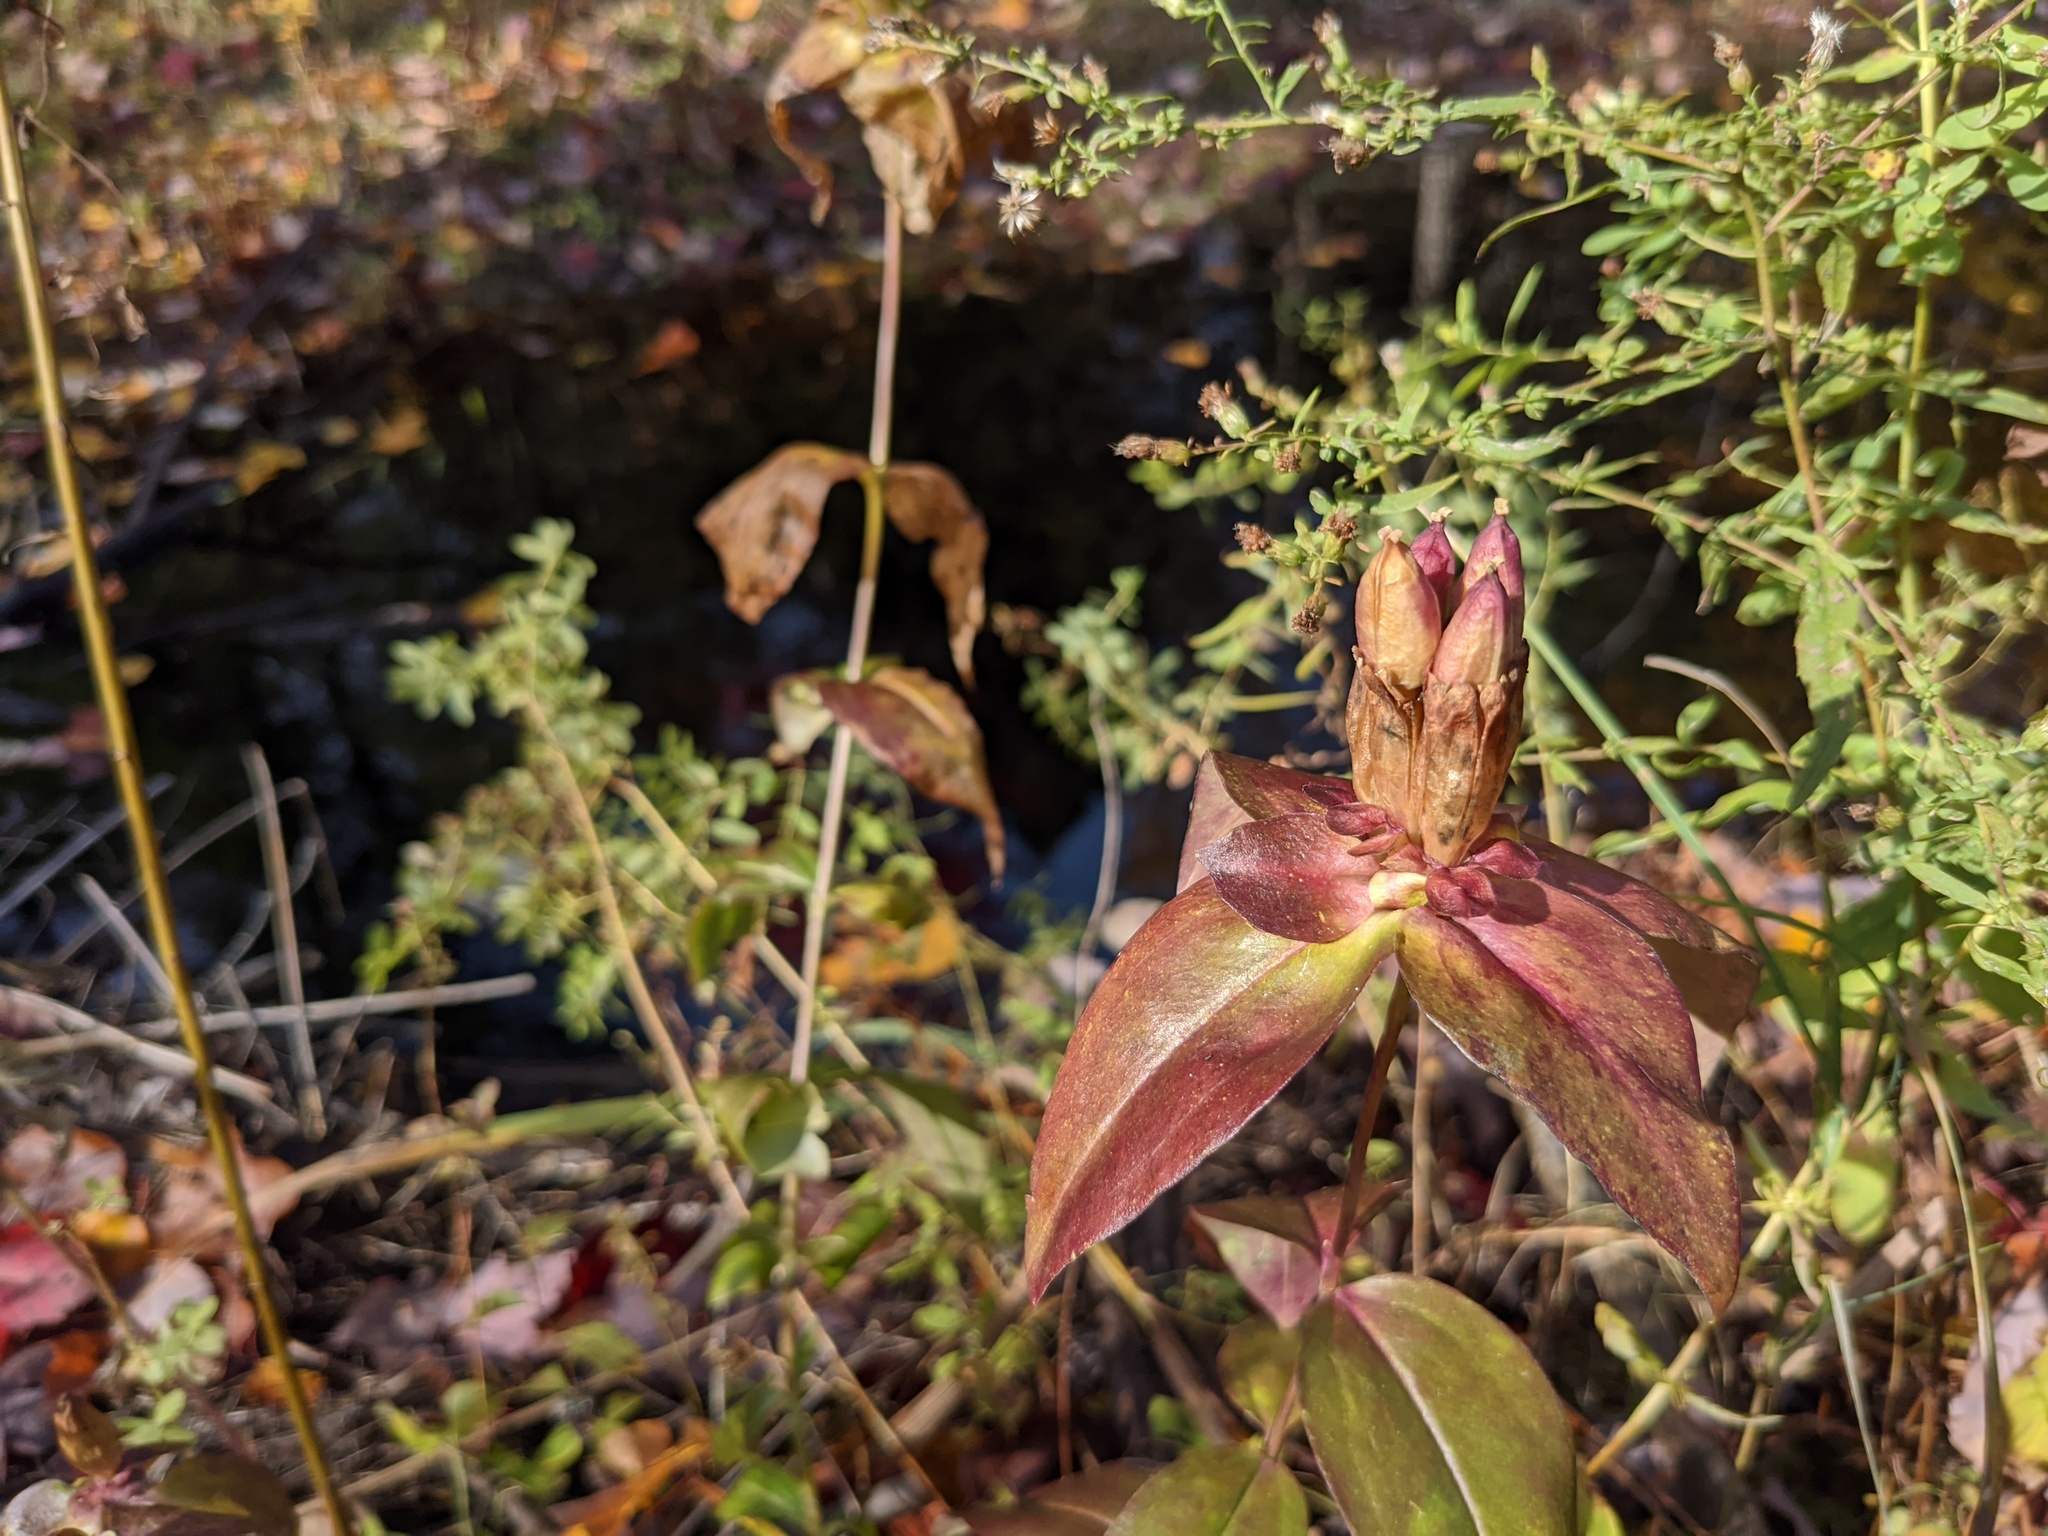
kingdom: Plantae
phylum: Tracheophyta
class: Magnoliopsida
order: Gentianales
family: Gentianaceae
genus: Gentiana
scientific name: Gentiana clausa
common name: Blind gentian
